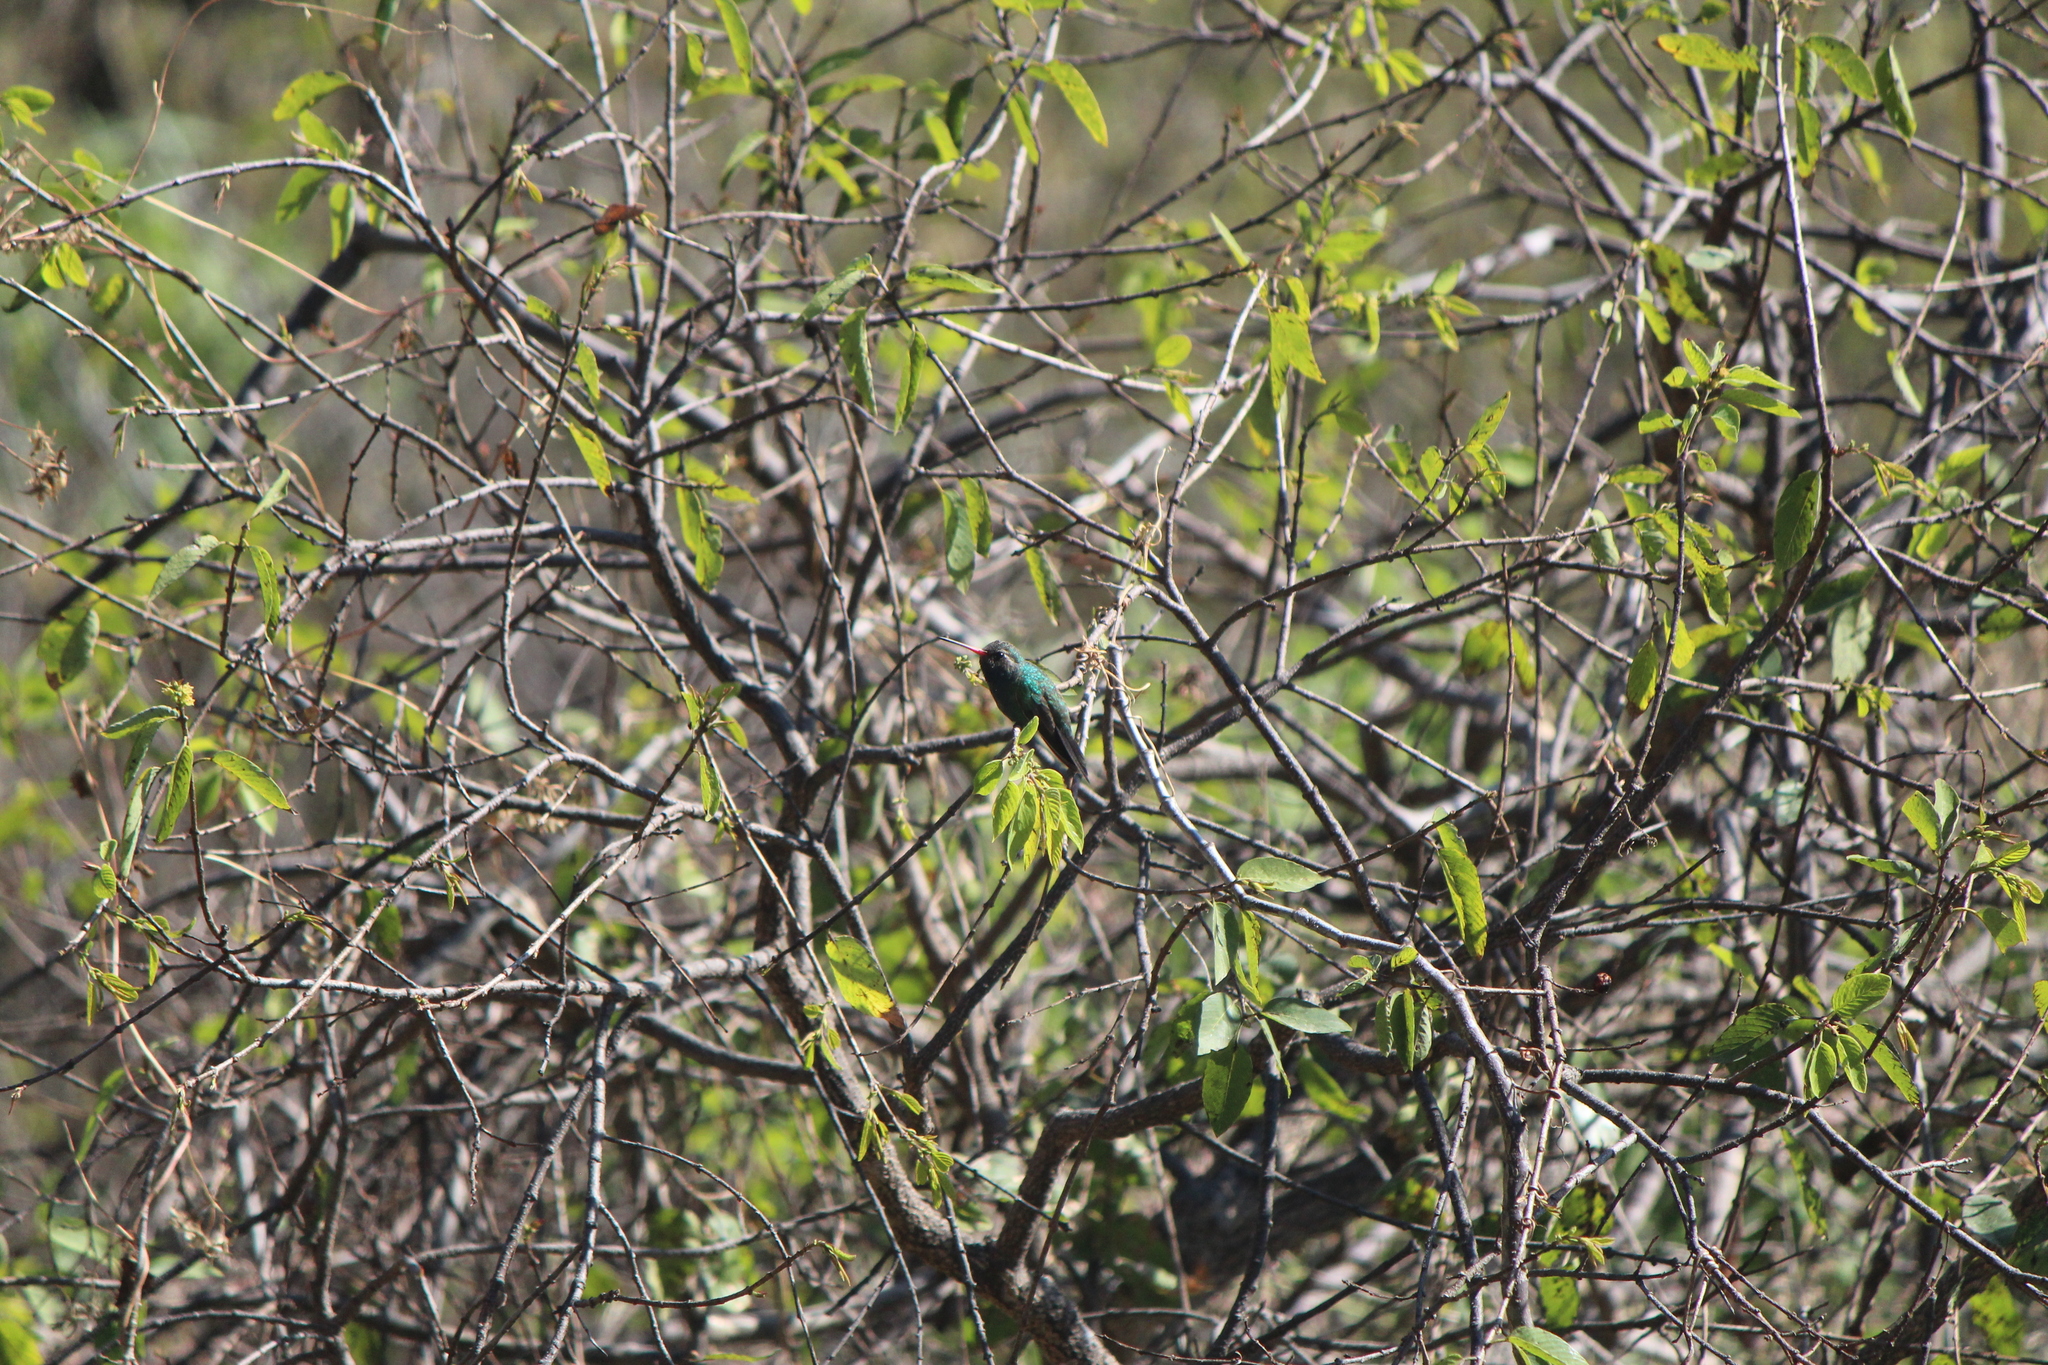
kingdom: Animalia
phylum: Chordata
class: Aves
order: Apodiformes
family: Trochilidae
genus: Cynanthus
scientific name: Cynanthus latirostris
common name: Broad-billed hummingbird
